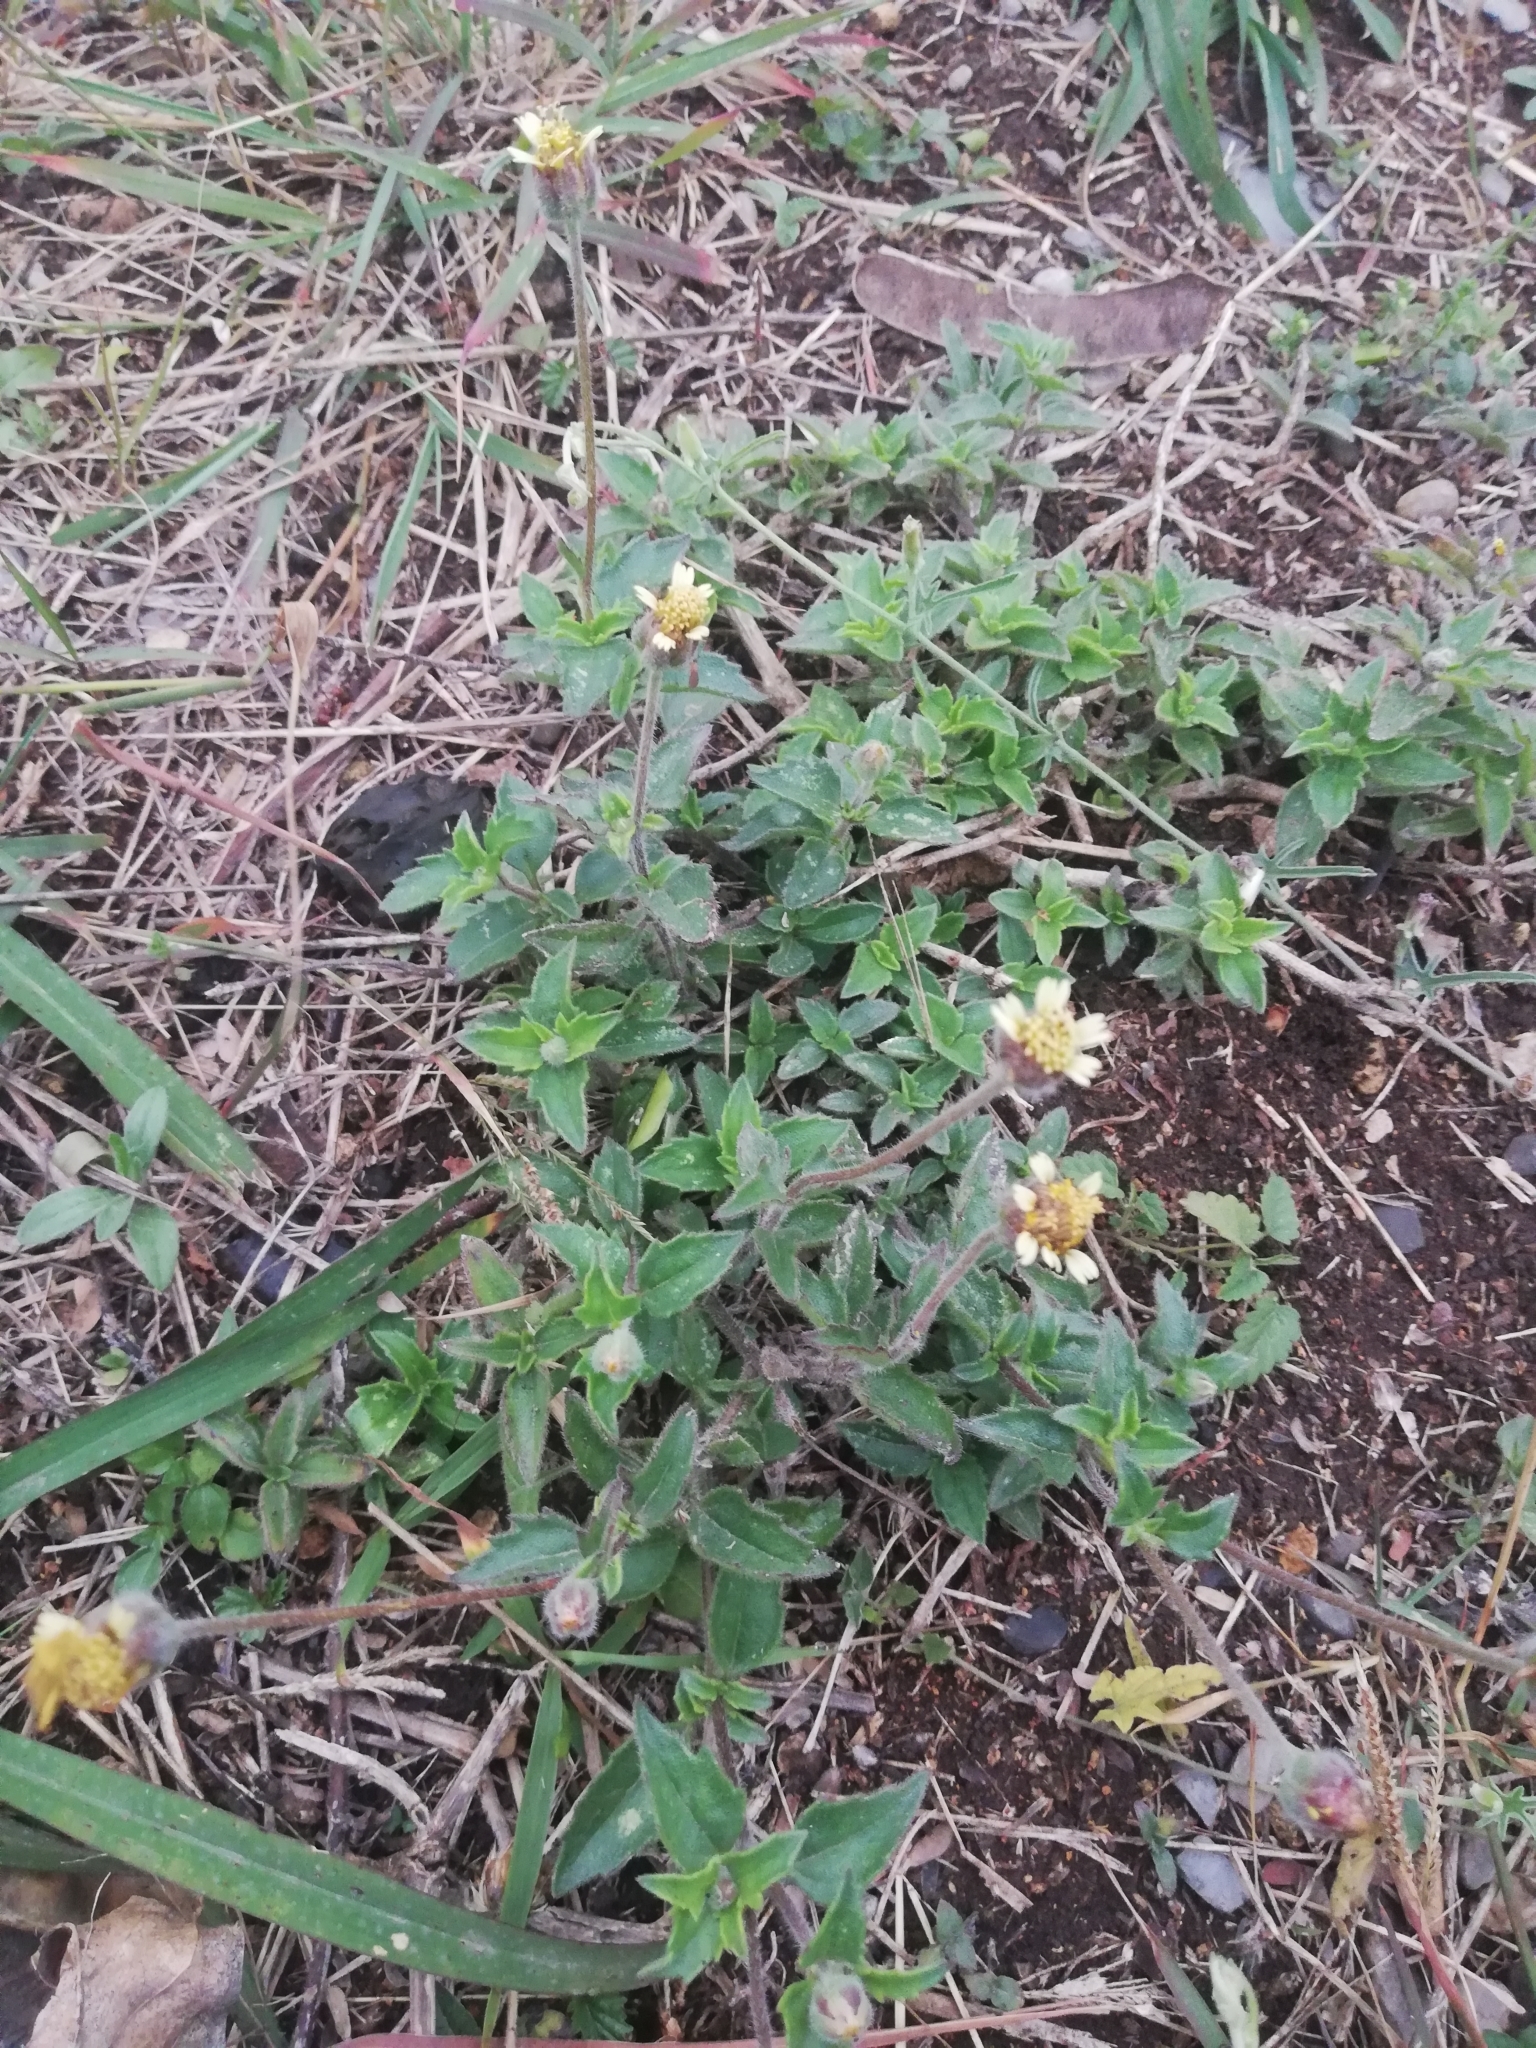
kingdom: Plantae
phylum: Tracheophyta
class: Magnoliopsida
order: Asterales
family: Asteraceae
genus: Tridax
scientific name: Tridax procumbens
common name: Coatbuttons
